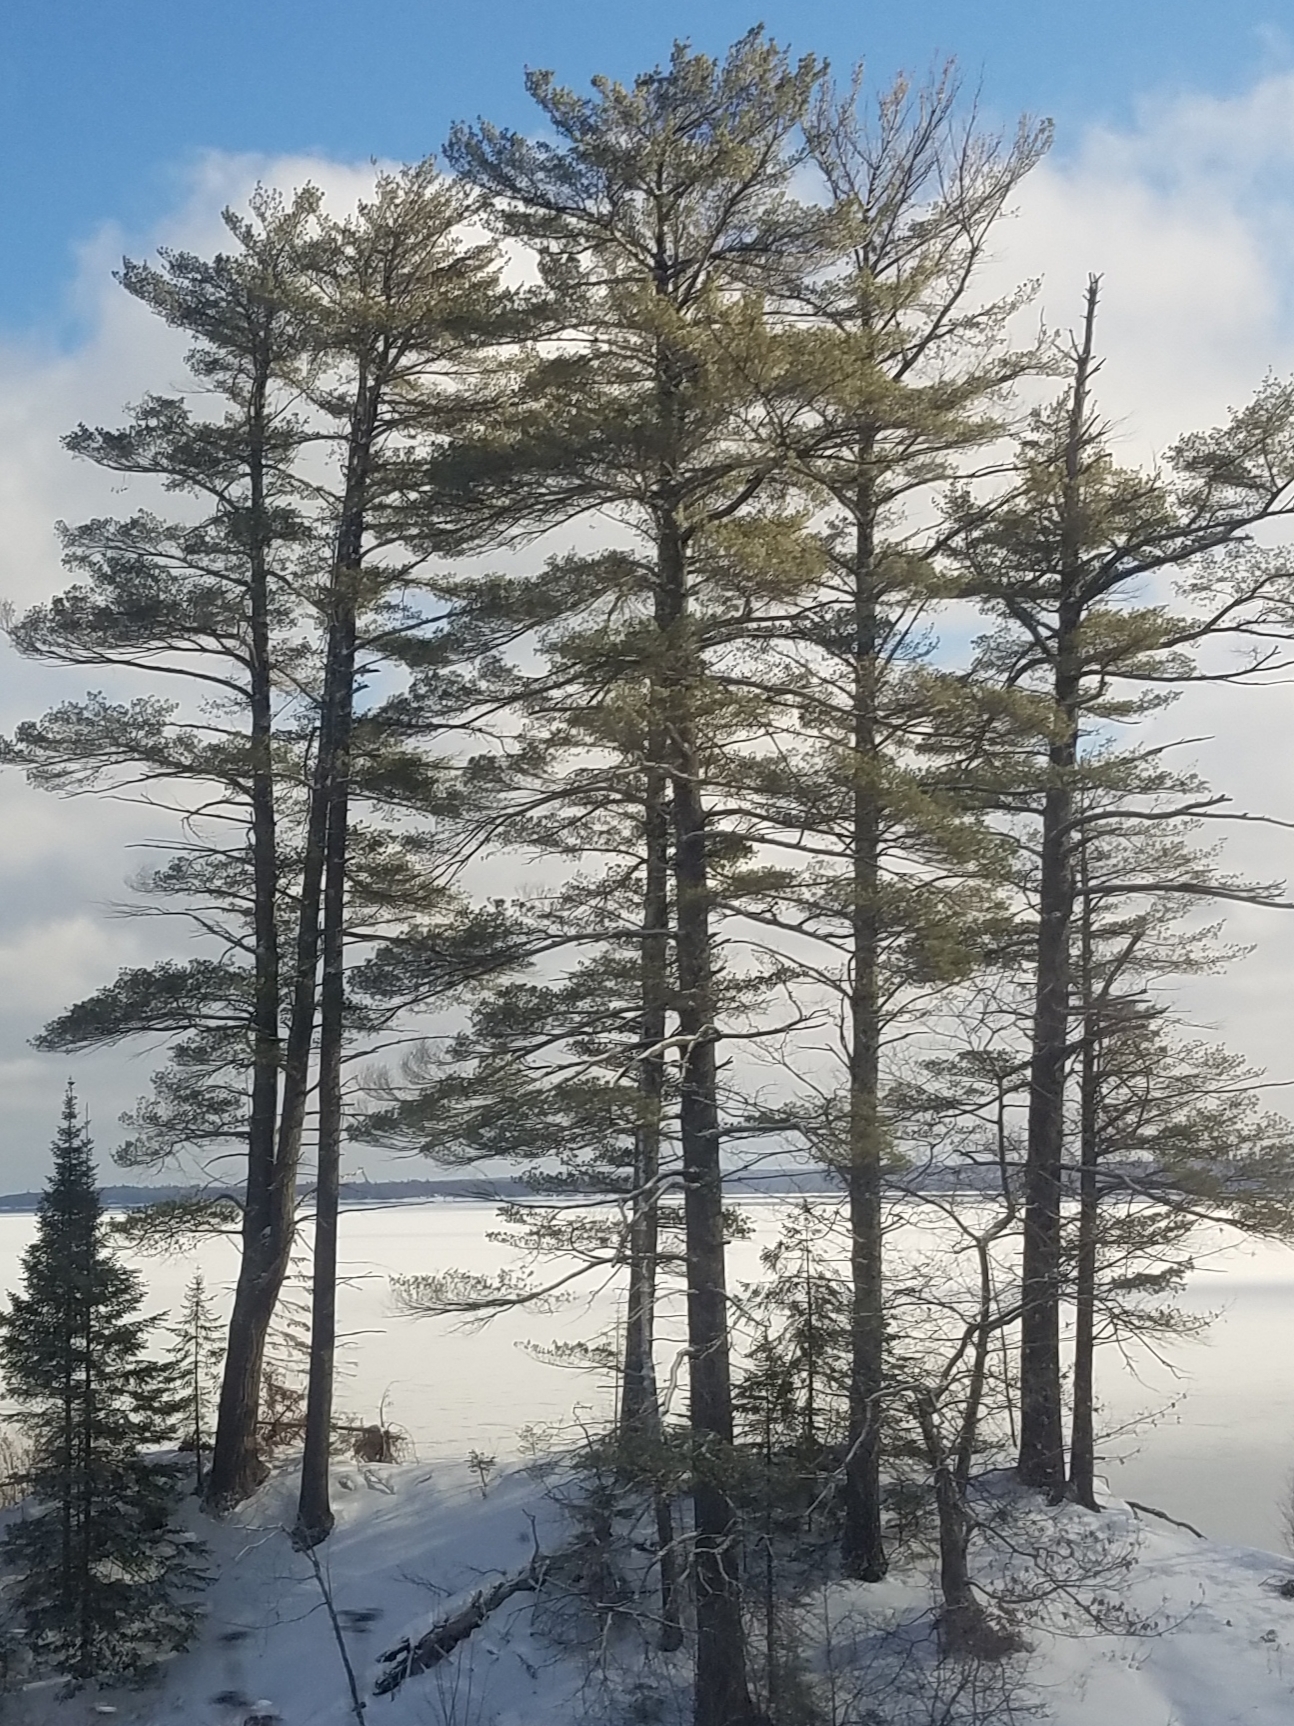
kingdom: Plantae
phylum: Tracheophyta
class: Pinopsida
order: Pinales
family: Pinaceae
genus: Pinus
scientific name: Pinus strobus
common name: Weymouth pine
